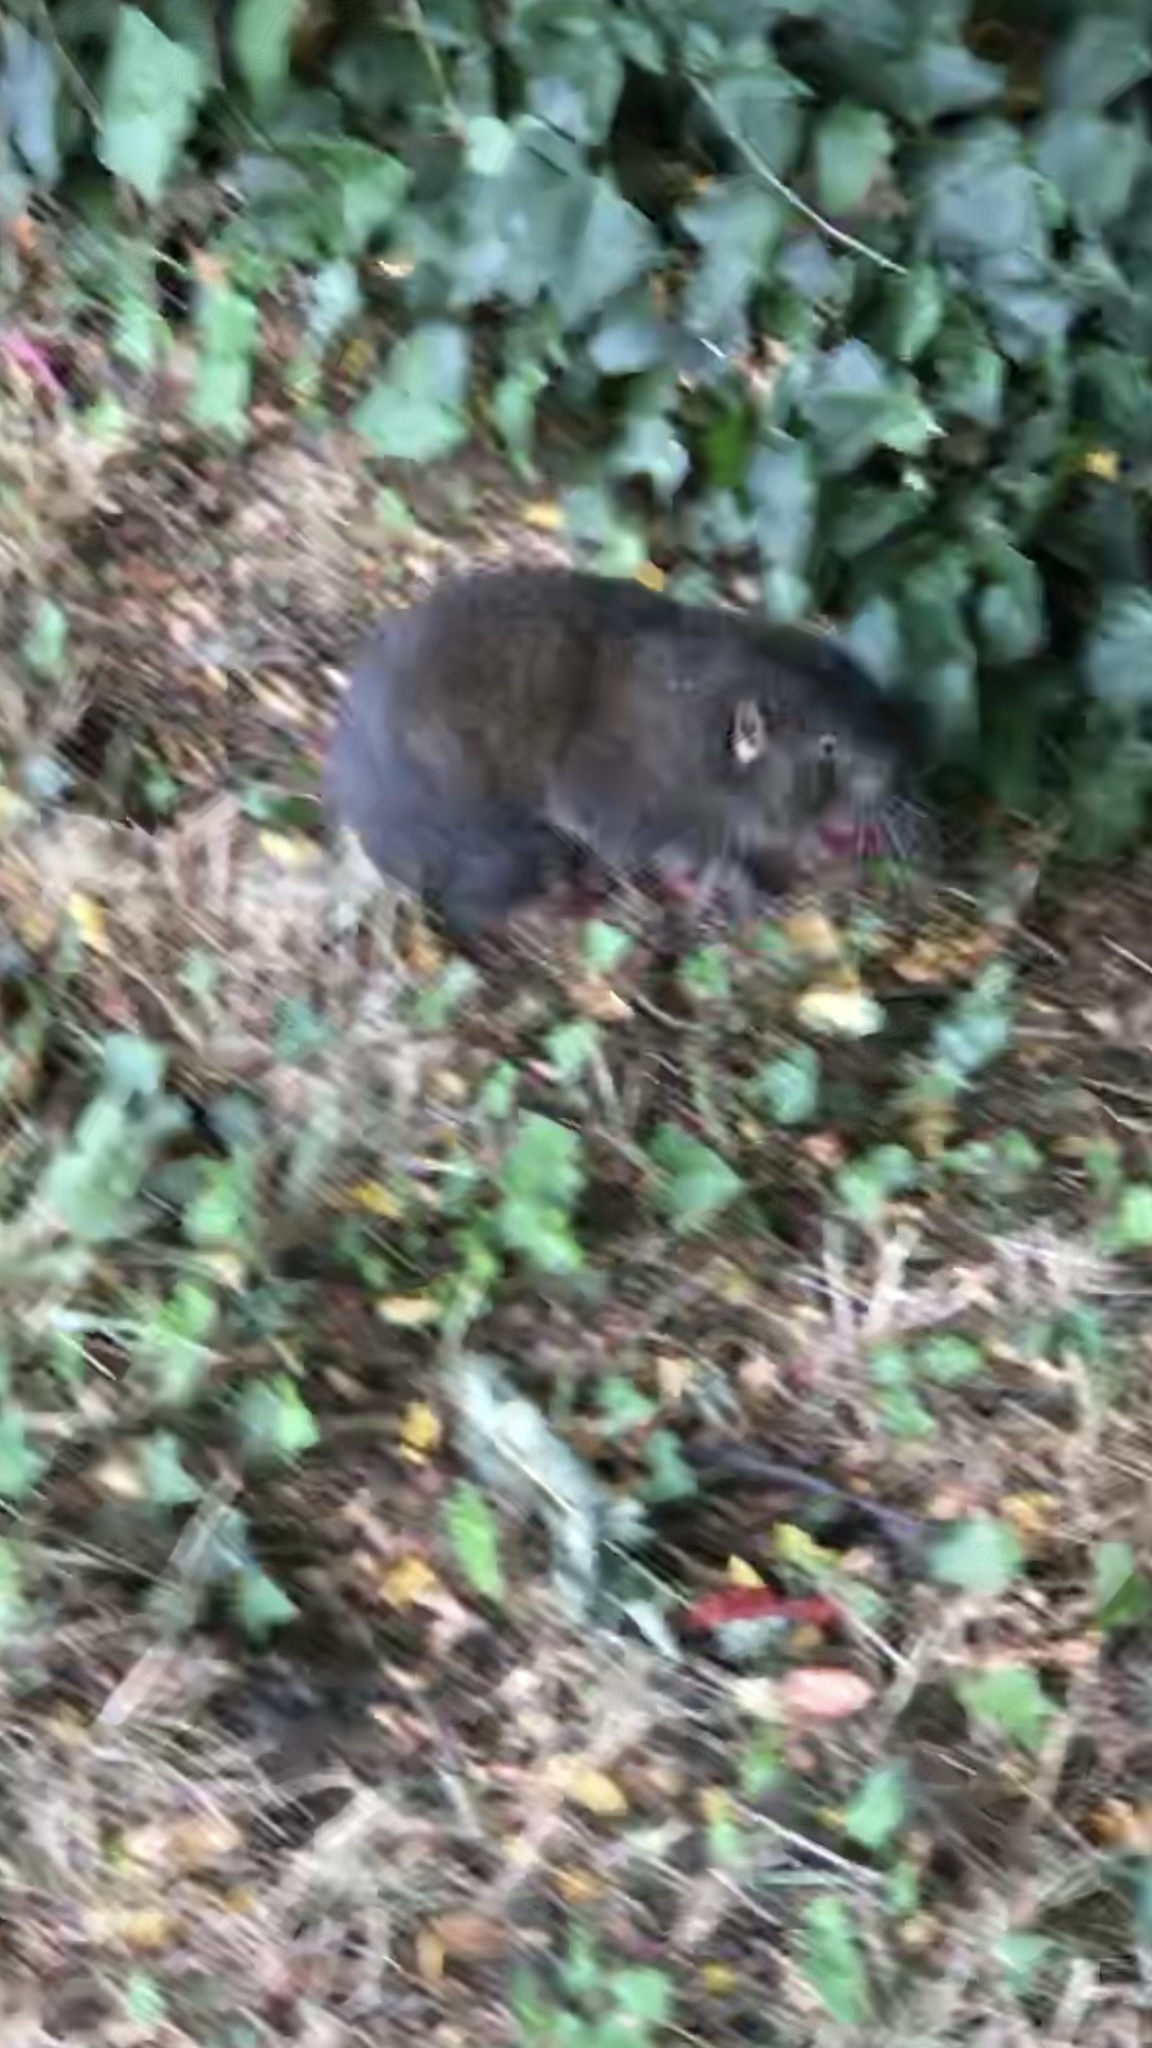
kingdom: Animalia
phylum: Chordata
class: Mammalia
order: Rodentia
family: Aplodontiidae
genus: Aplodontia
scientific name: Aplodontia rufa
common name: Mountain beaver
